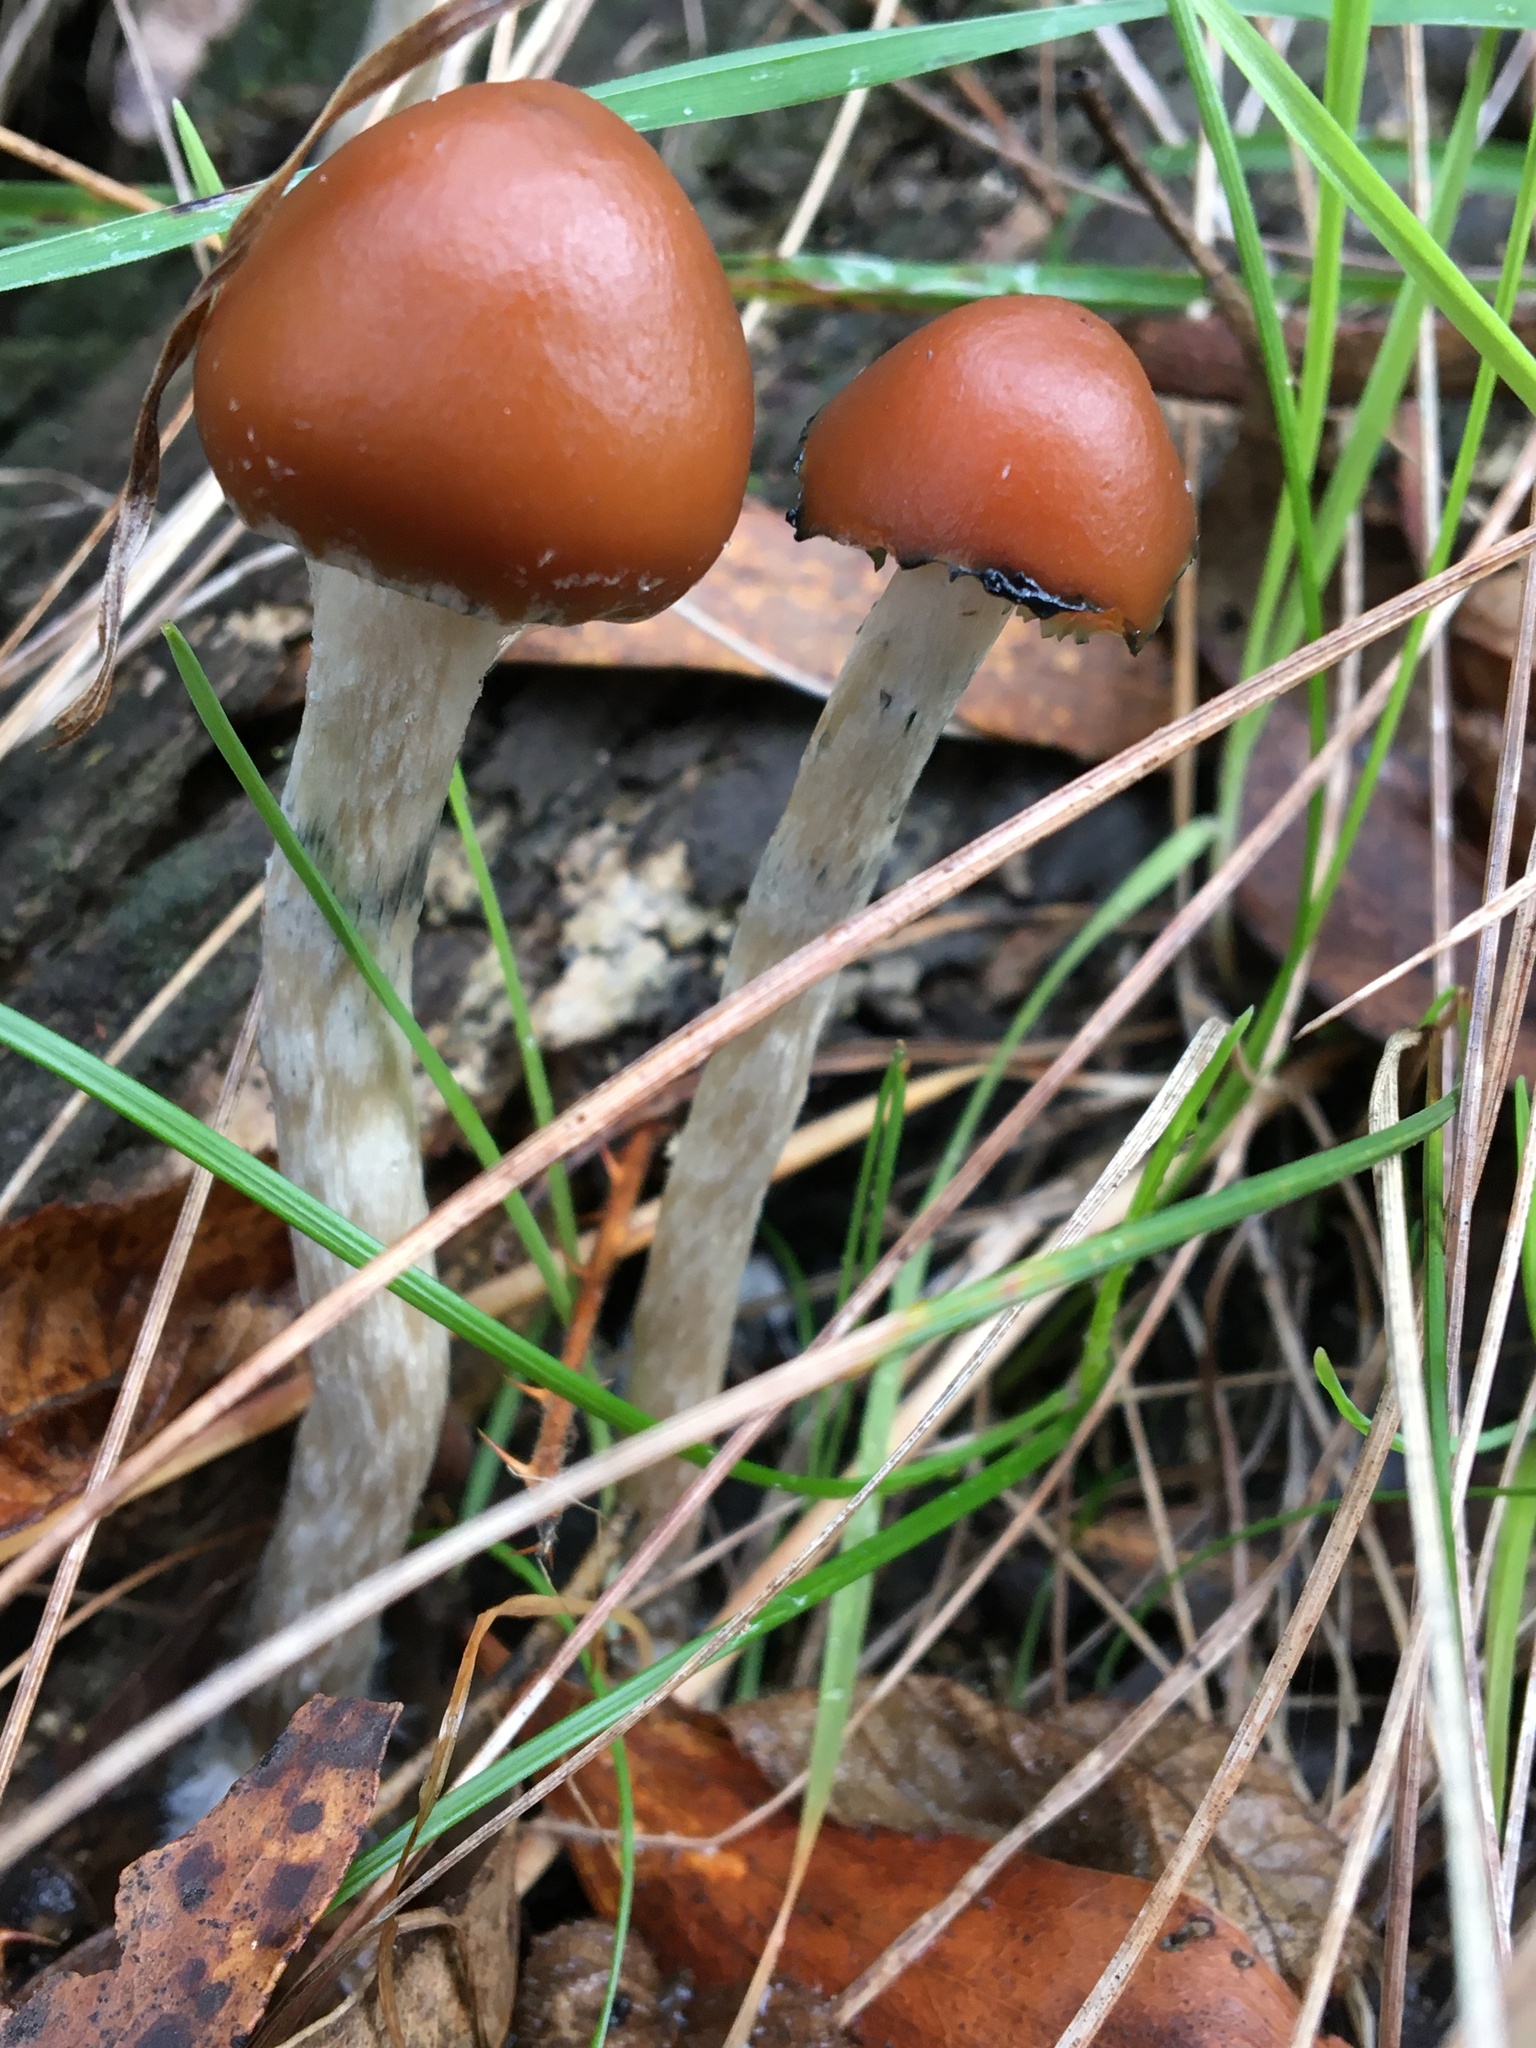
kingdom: Fungi
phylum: Basidiomycota
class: Agaricomycetes
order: Agaricales
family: Hymenogastraceae
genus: Psilocybe
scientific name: Psilocybe subaeruginosa
